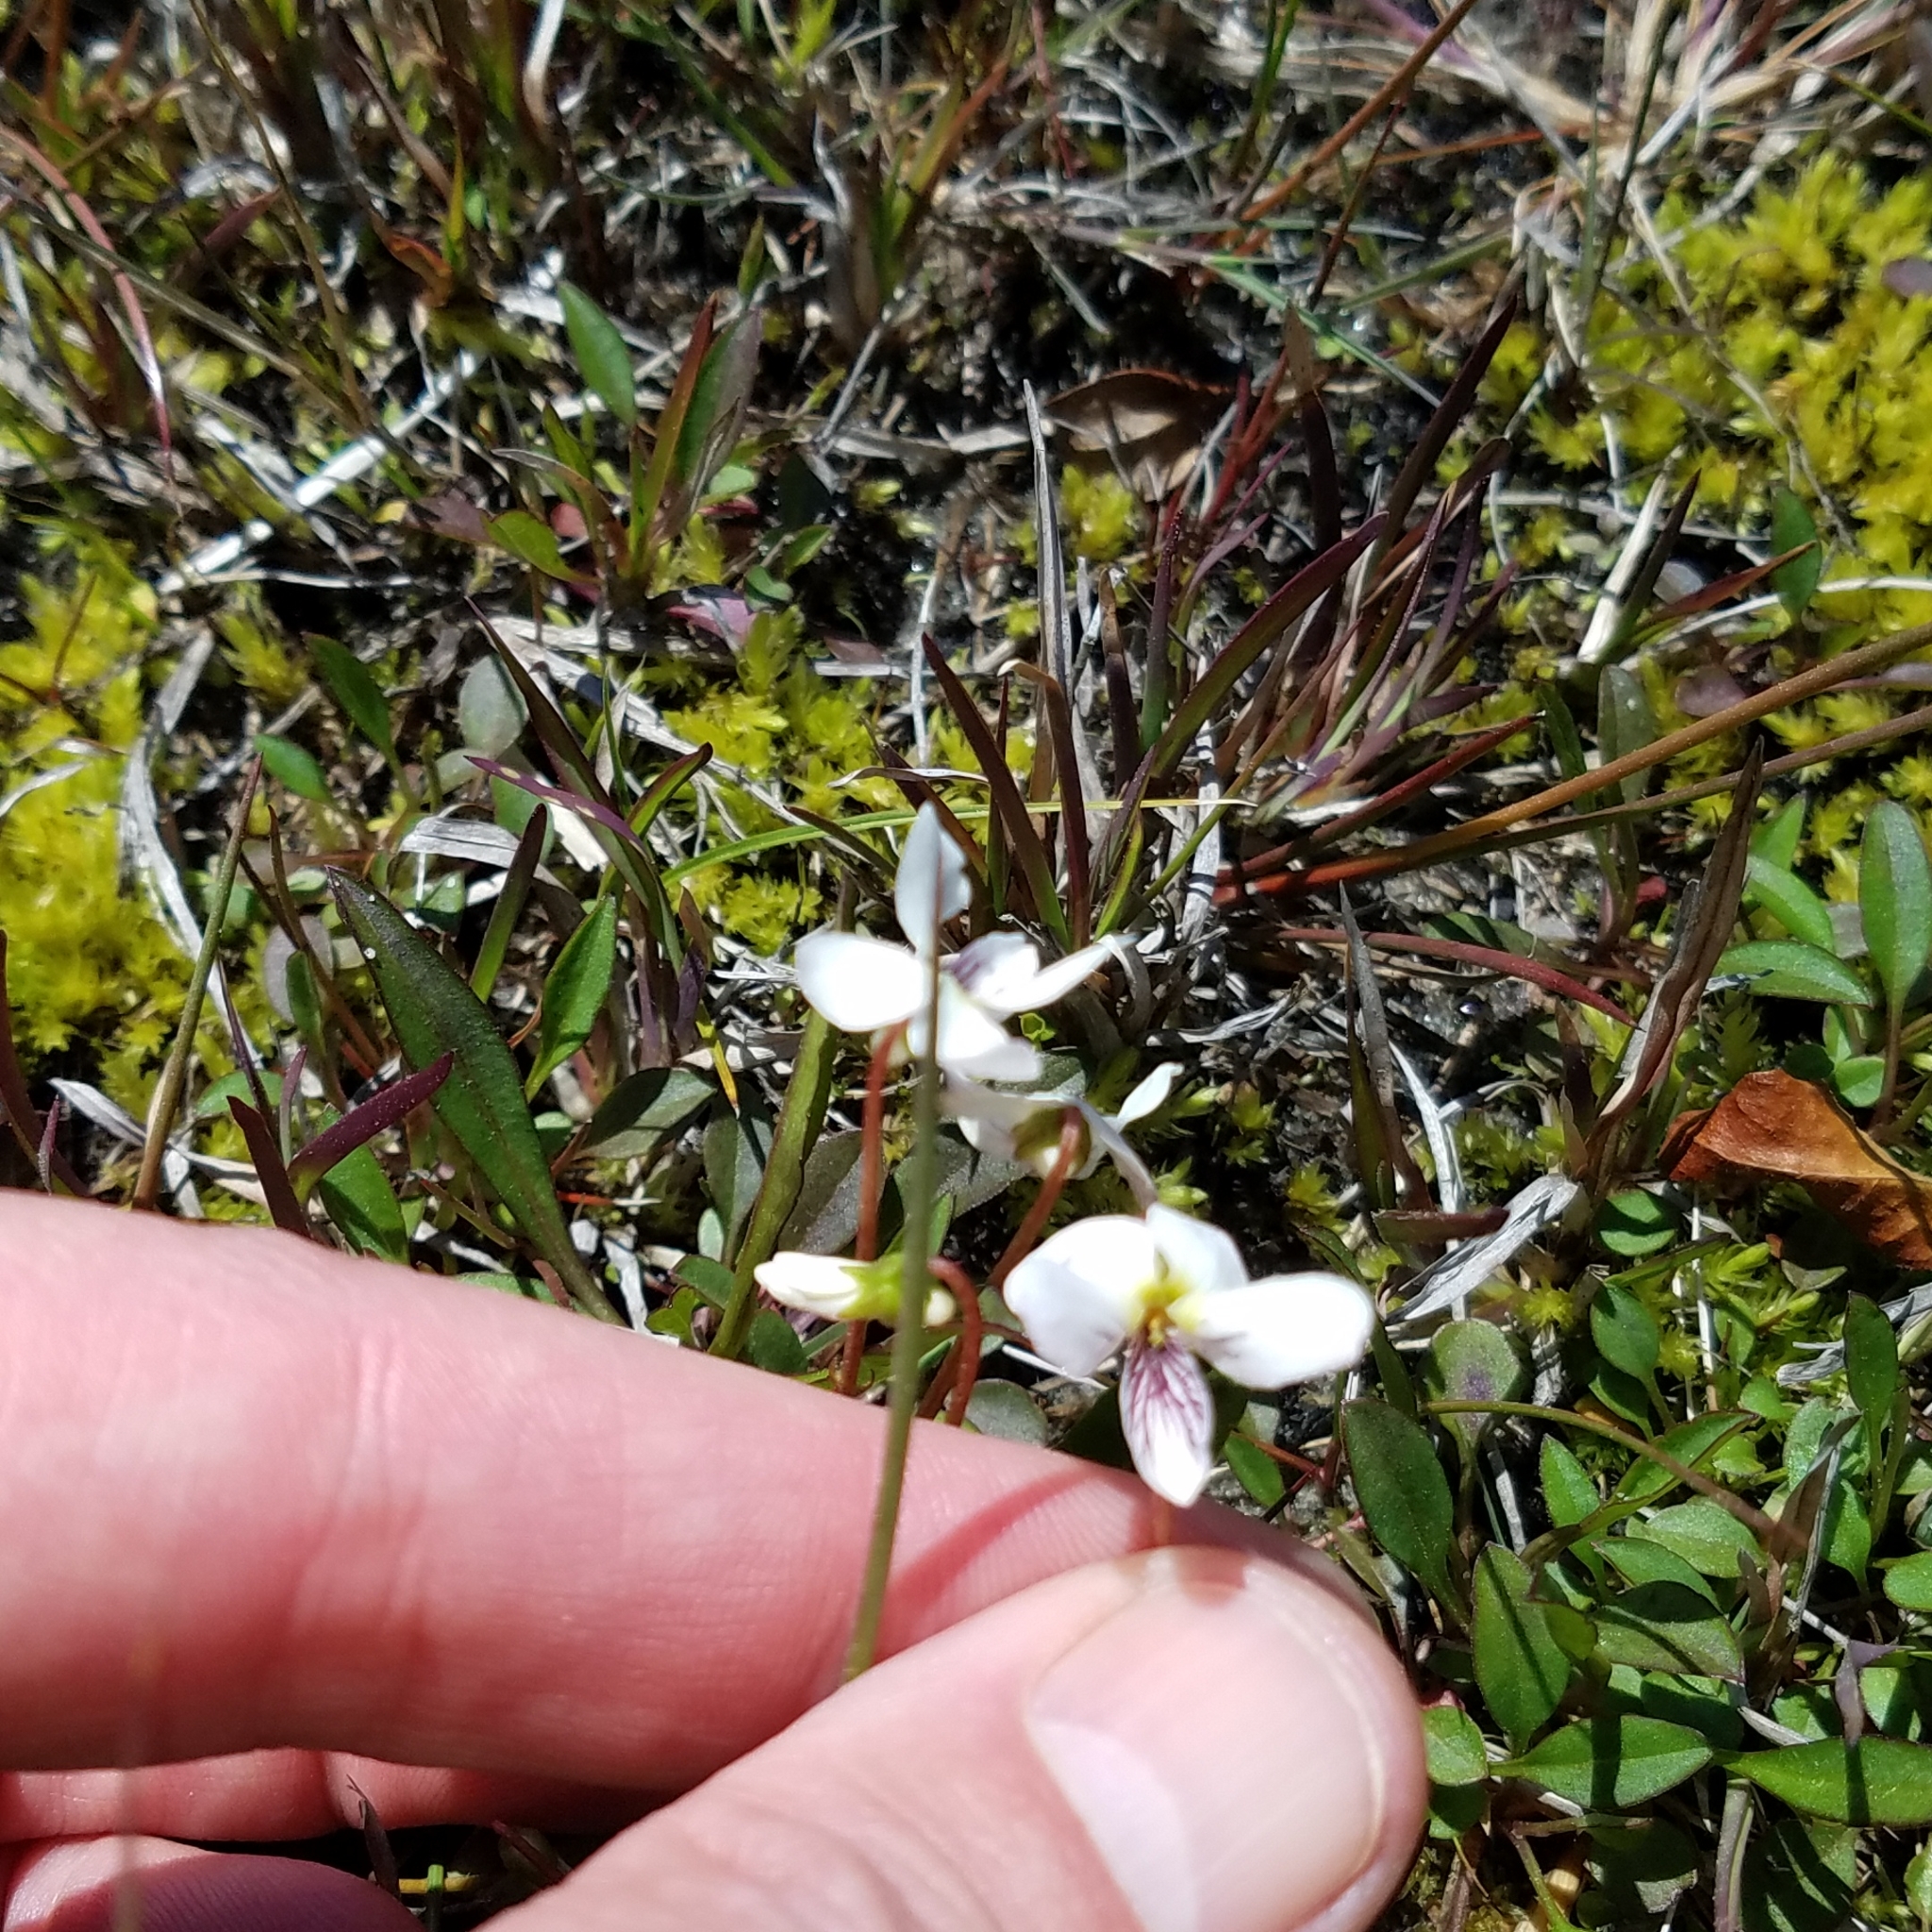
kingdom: Plantae
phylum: Tracheophyta
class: Magnoliopsida
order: Malpighiales
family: Violaceae
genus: Viola
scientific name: Viola lanceolata
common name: Bog white violet
